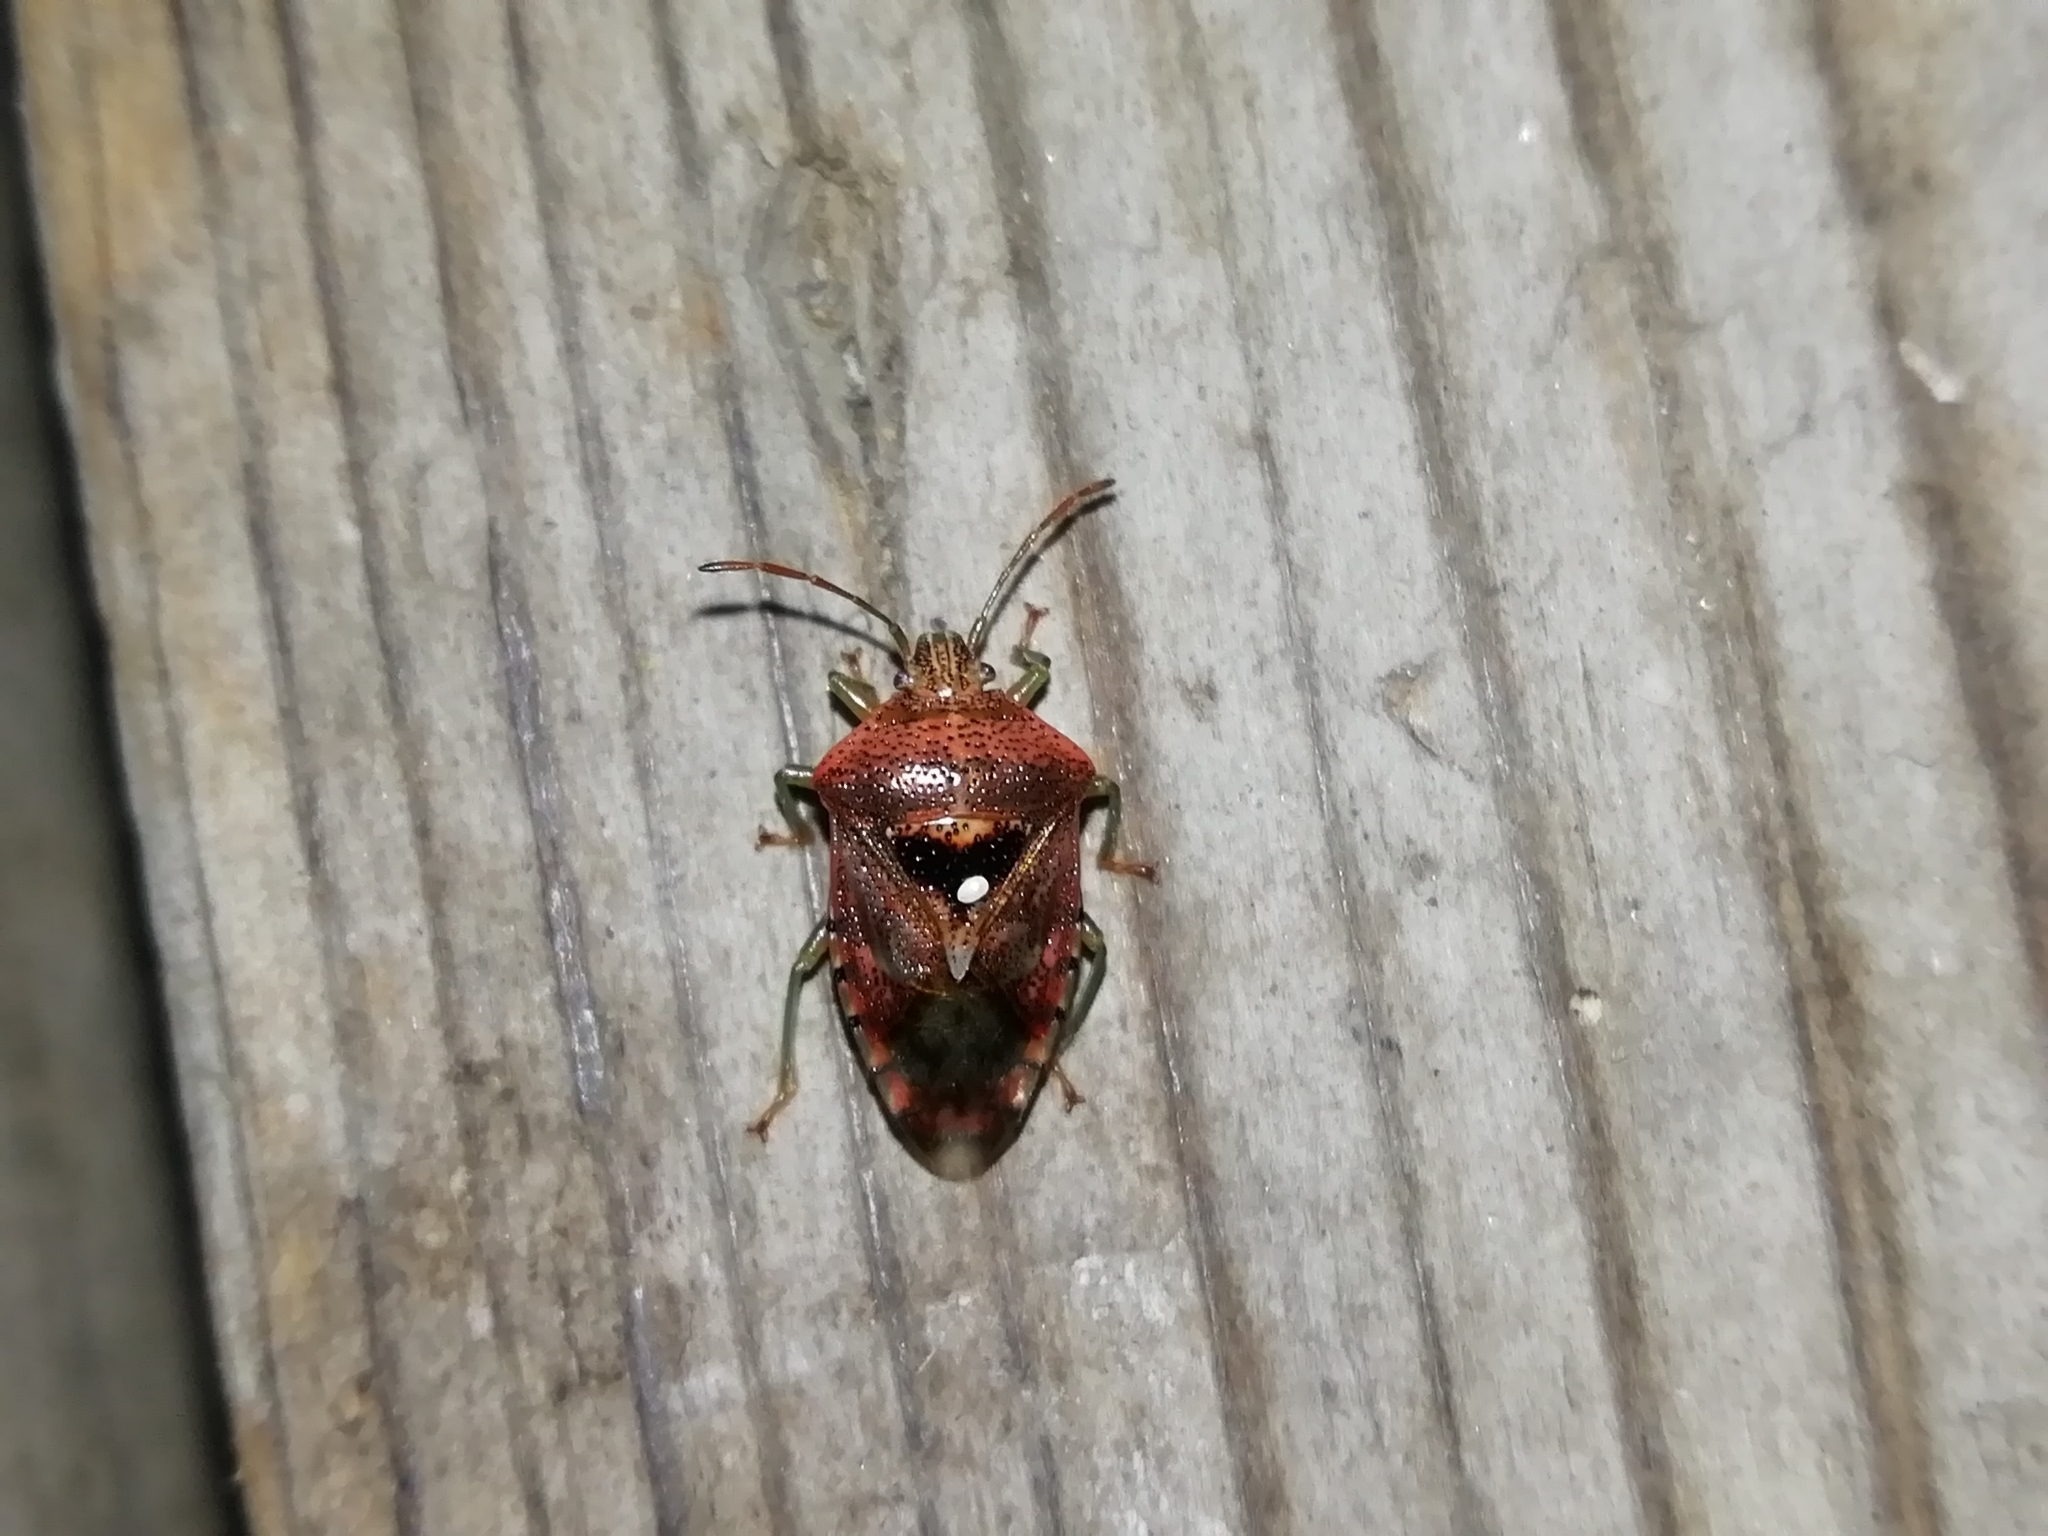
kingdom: Animalia
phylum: Arthropoda
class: Insecta
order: Hemiptera
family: Acanthosomatidae
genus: Elasmucha
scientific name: Elasmucha grisea
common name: Parent bug
